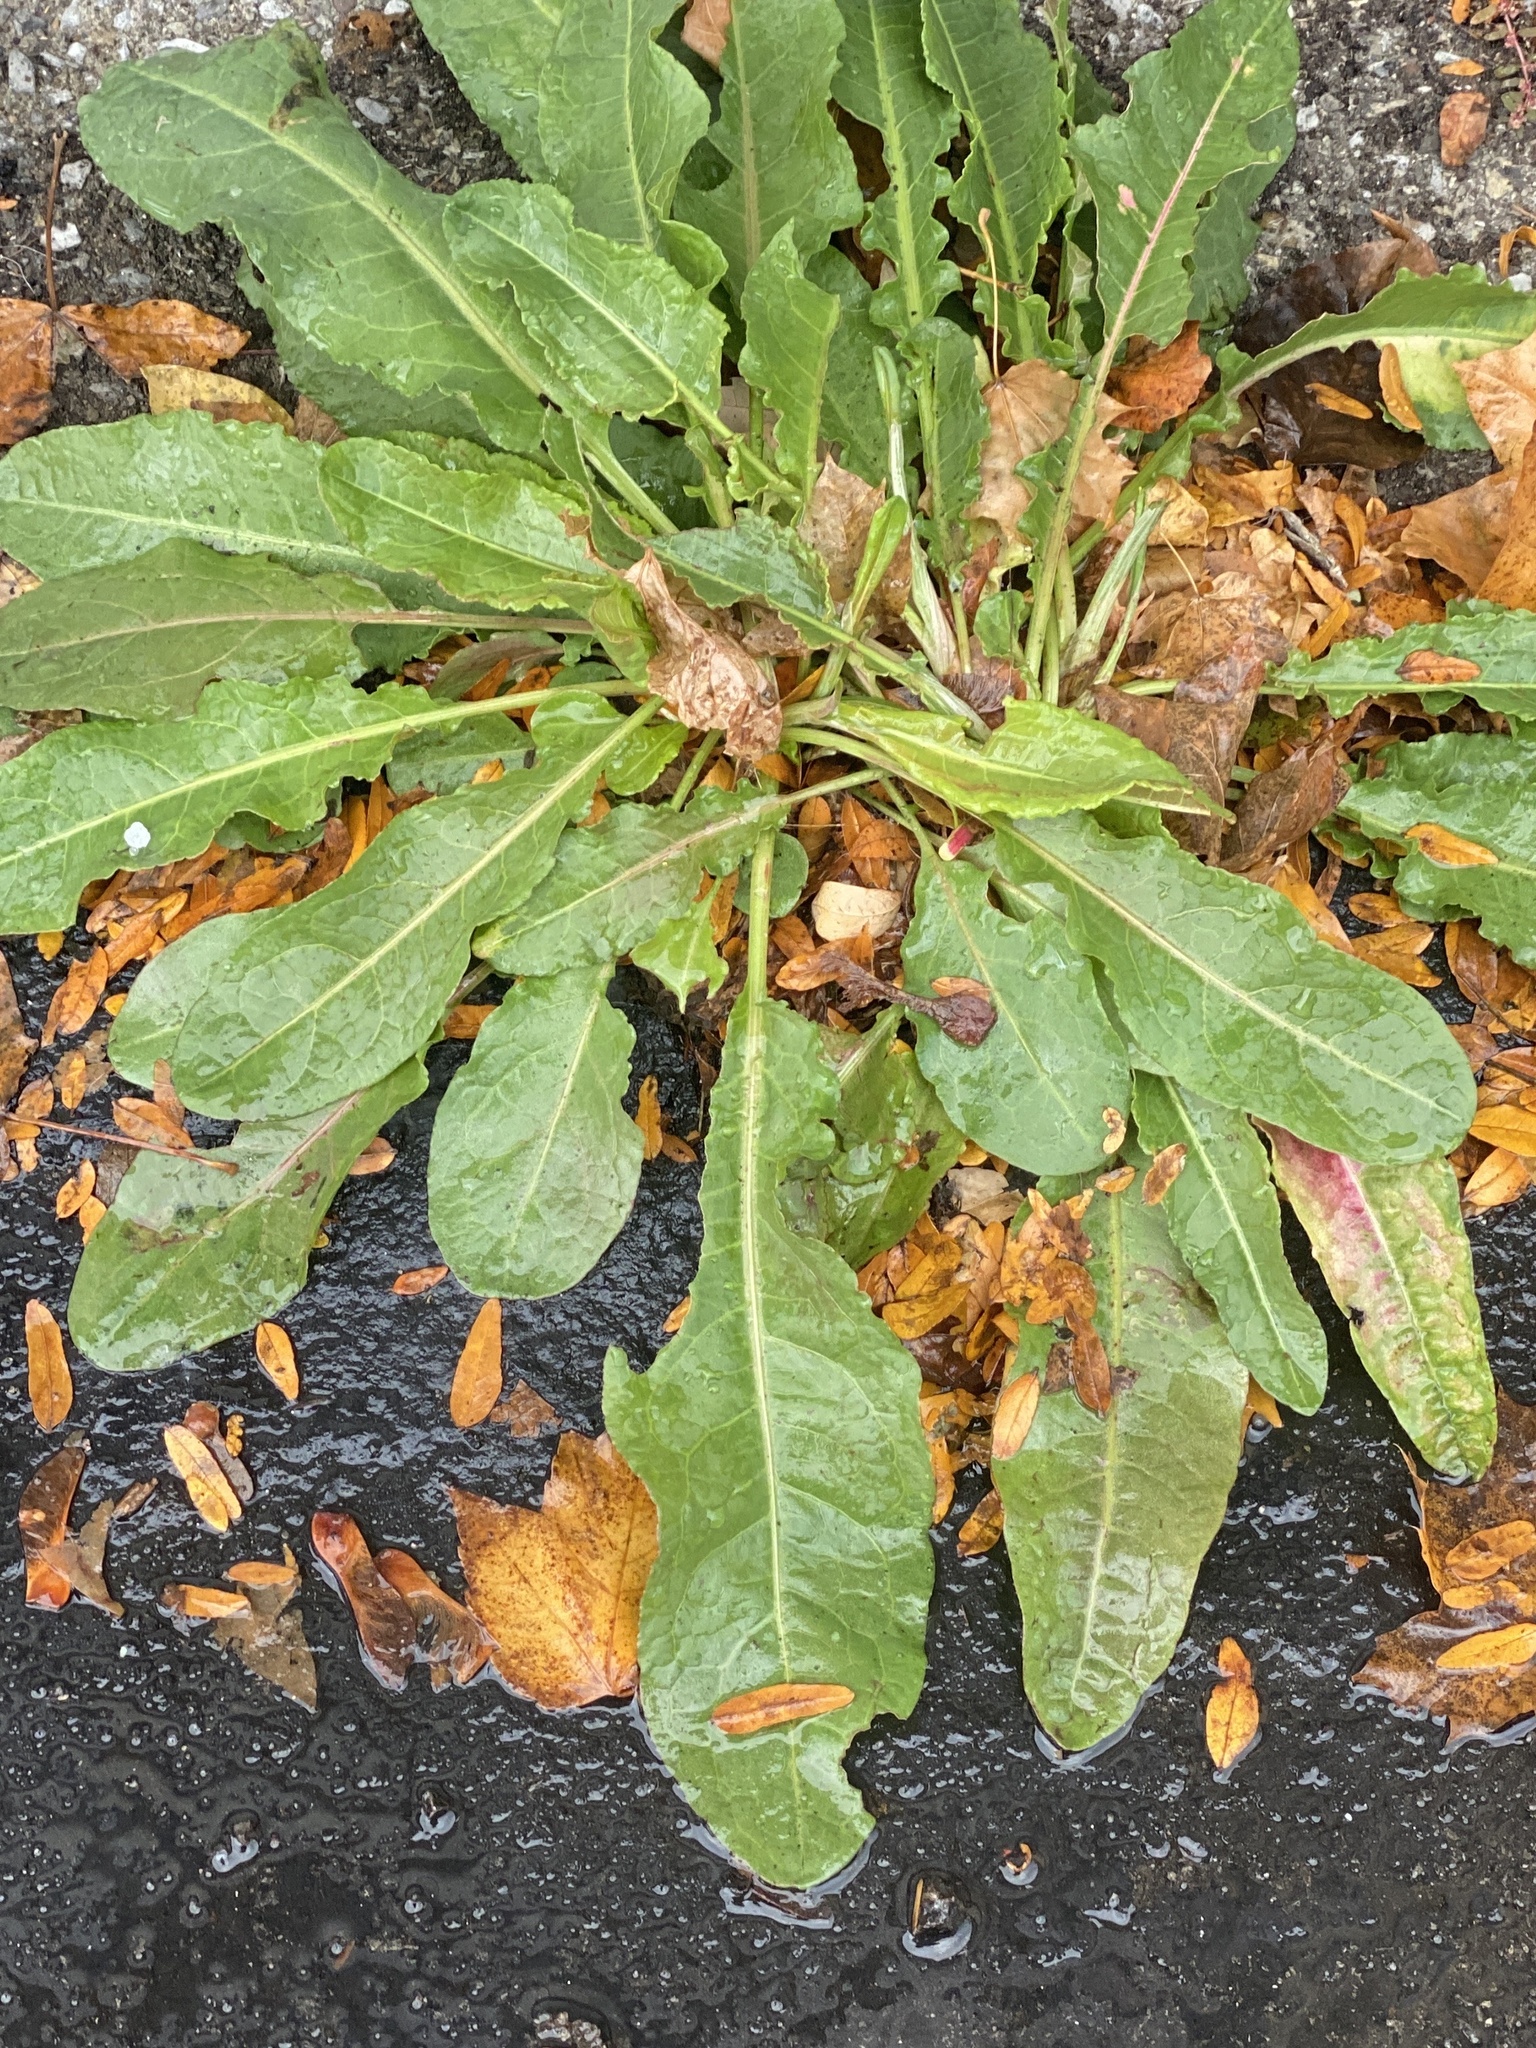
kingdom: Plantae
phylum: Tracheophyta
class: Magnoliopsida
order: Caryophyllales
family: Polygonaceae
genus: Rumex
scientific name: Rumex crispus
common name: Curled dock
